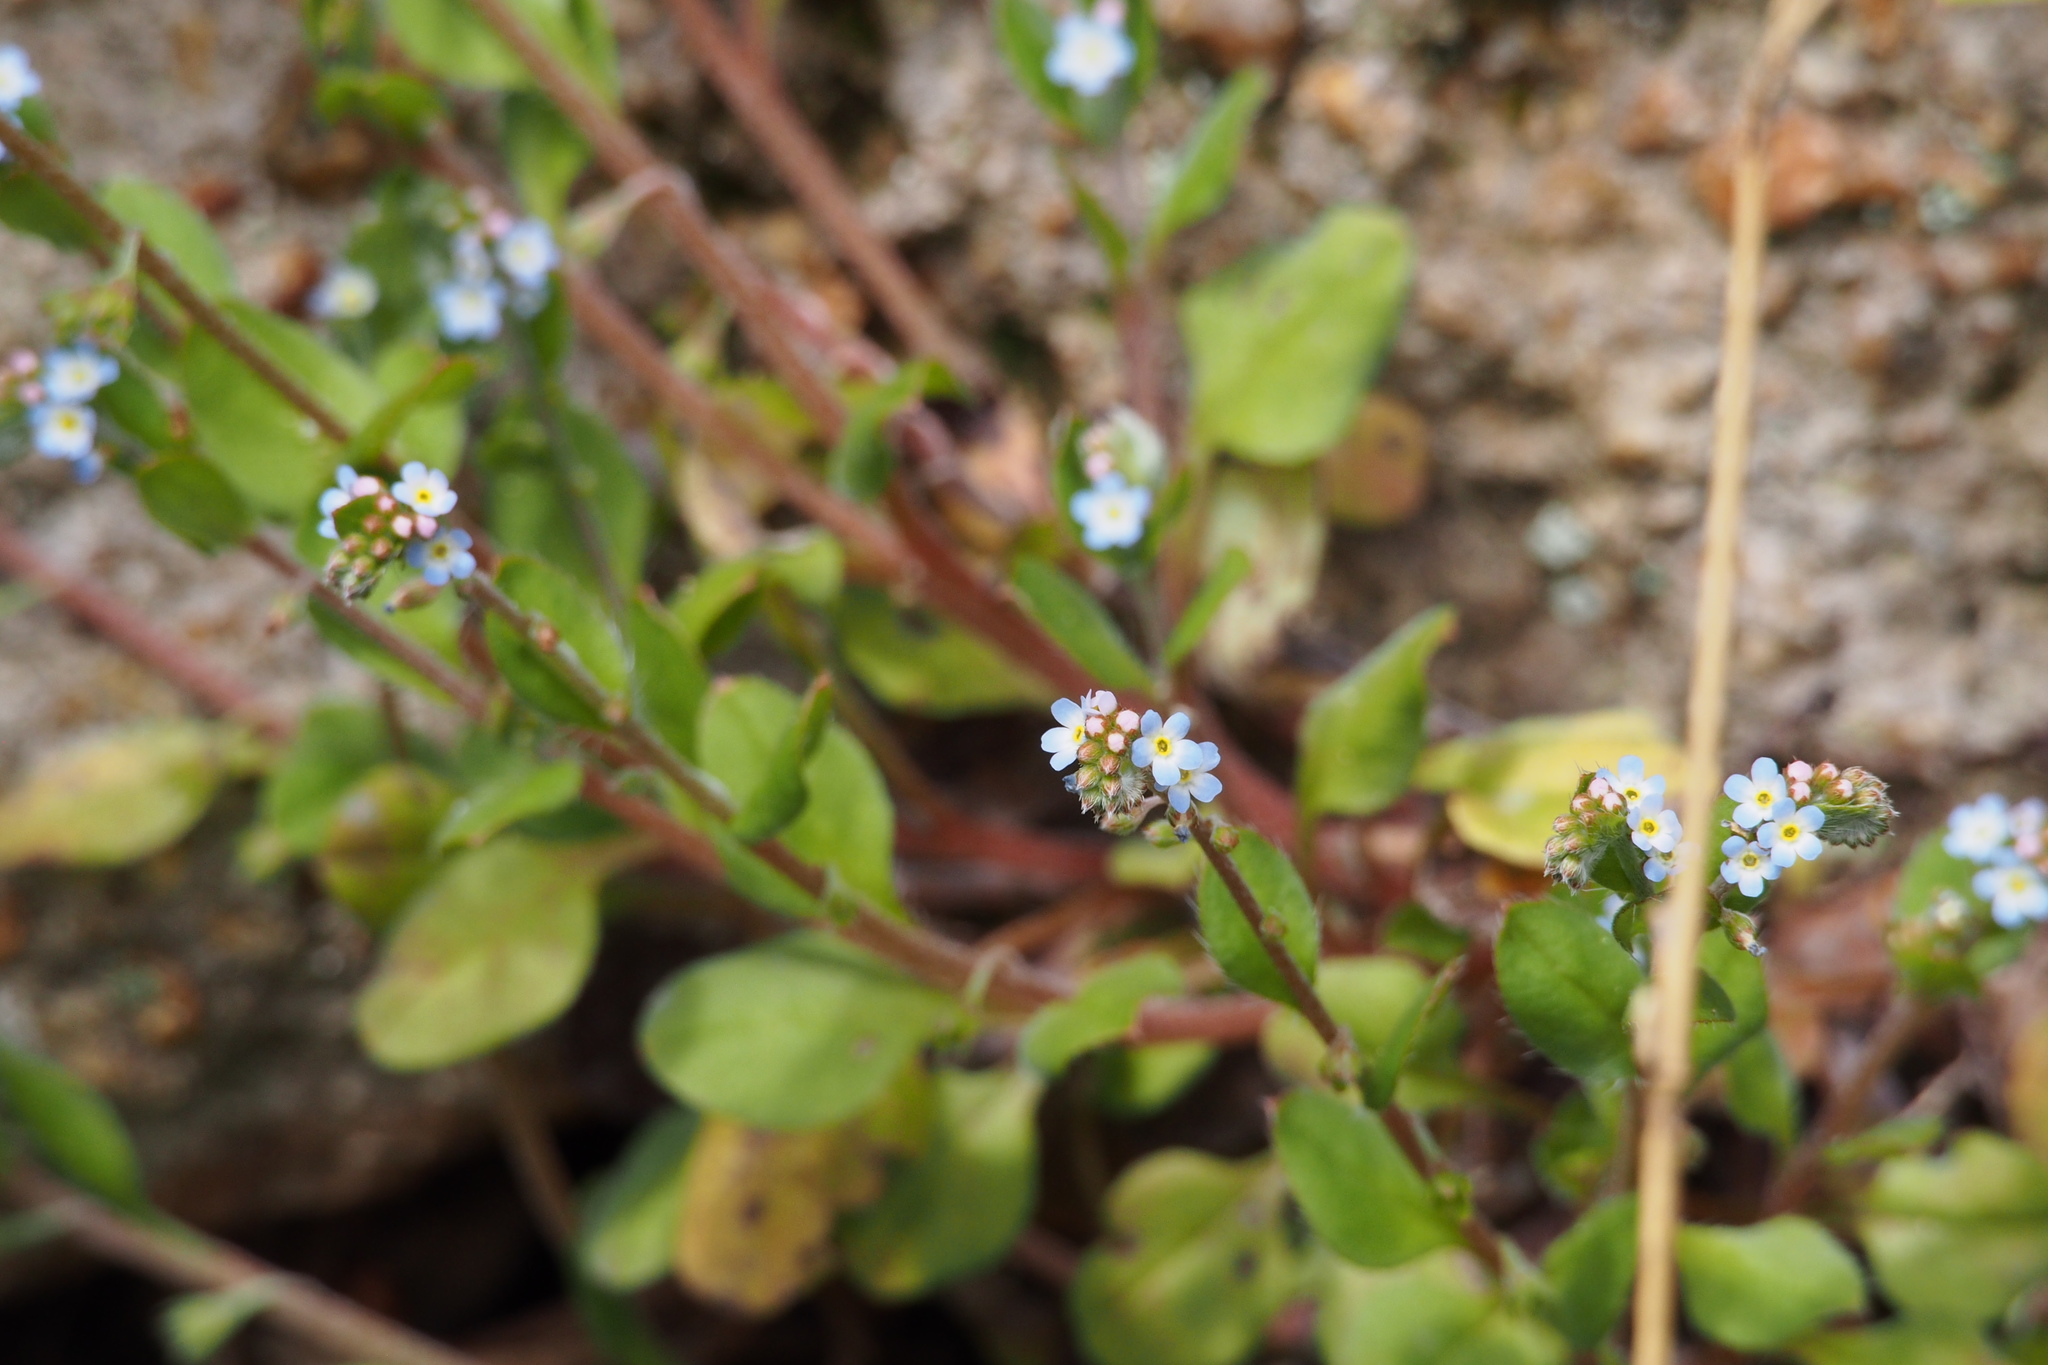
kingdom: Plantae
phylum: Tracheophyta
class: Magnoliopsida
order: Boraginales
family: Boraginaceae
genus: Trigonotis
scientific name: Trigonotis peduncularis
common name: Cucumber herb
